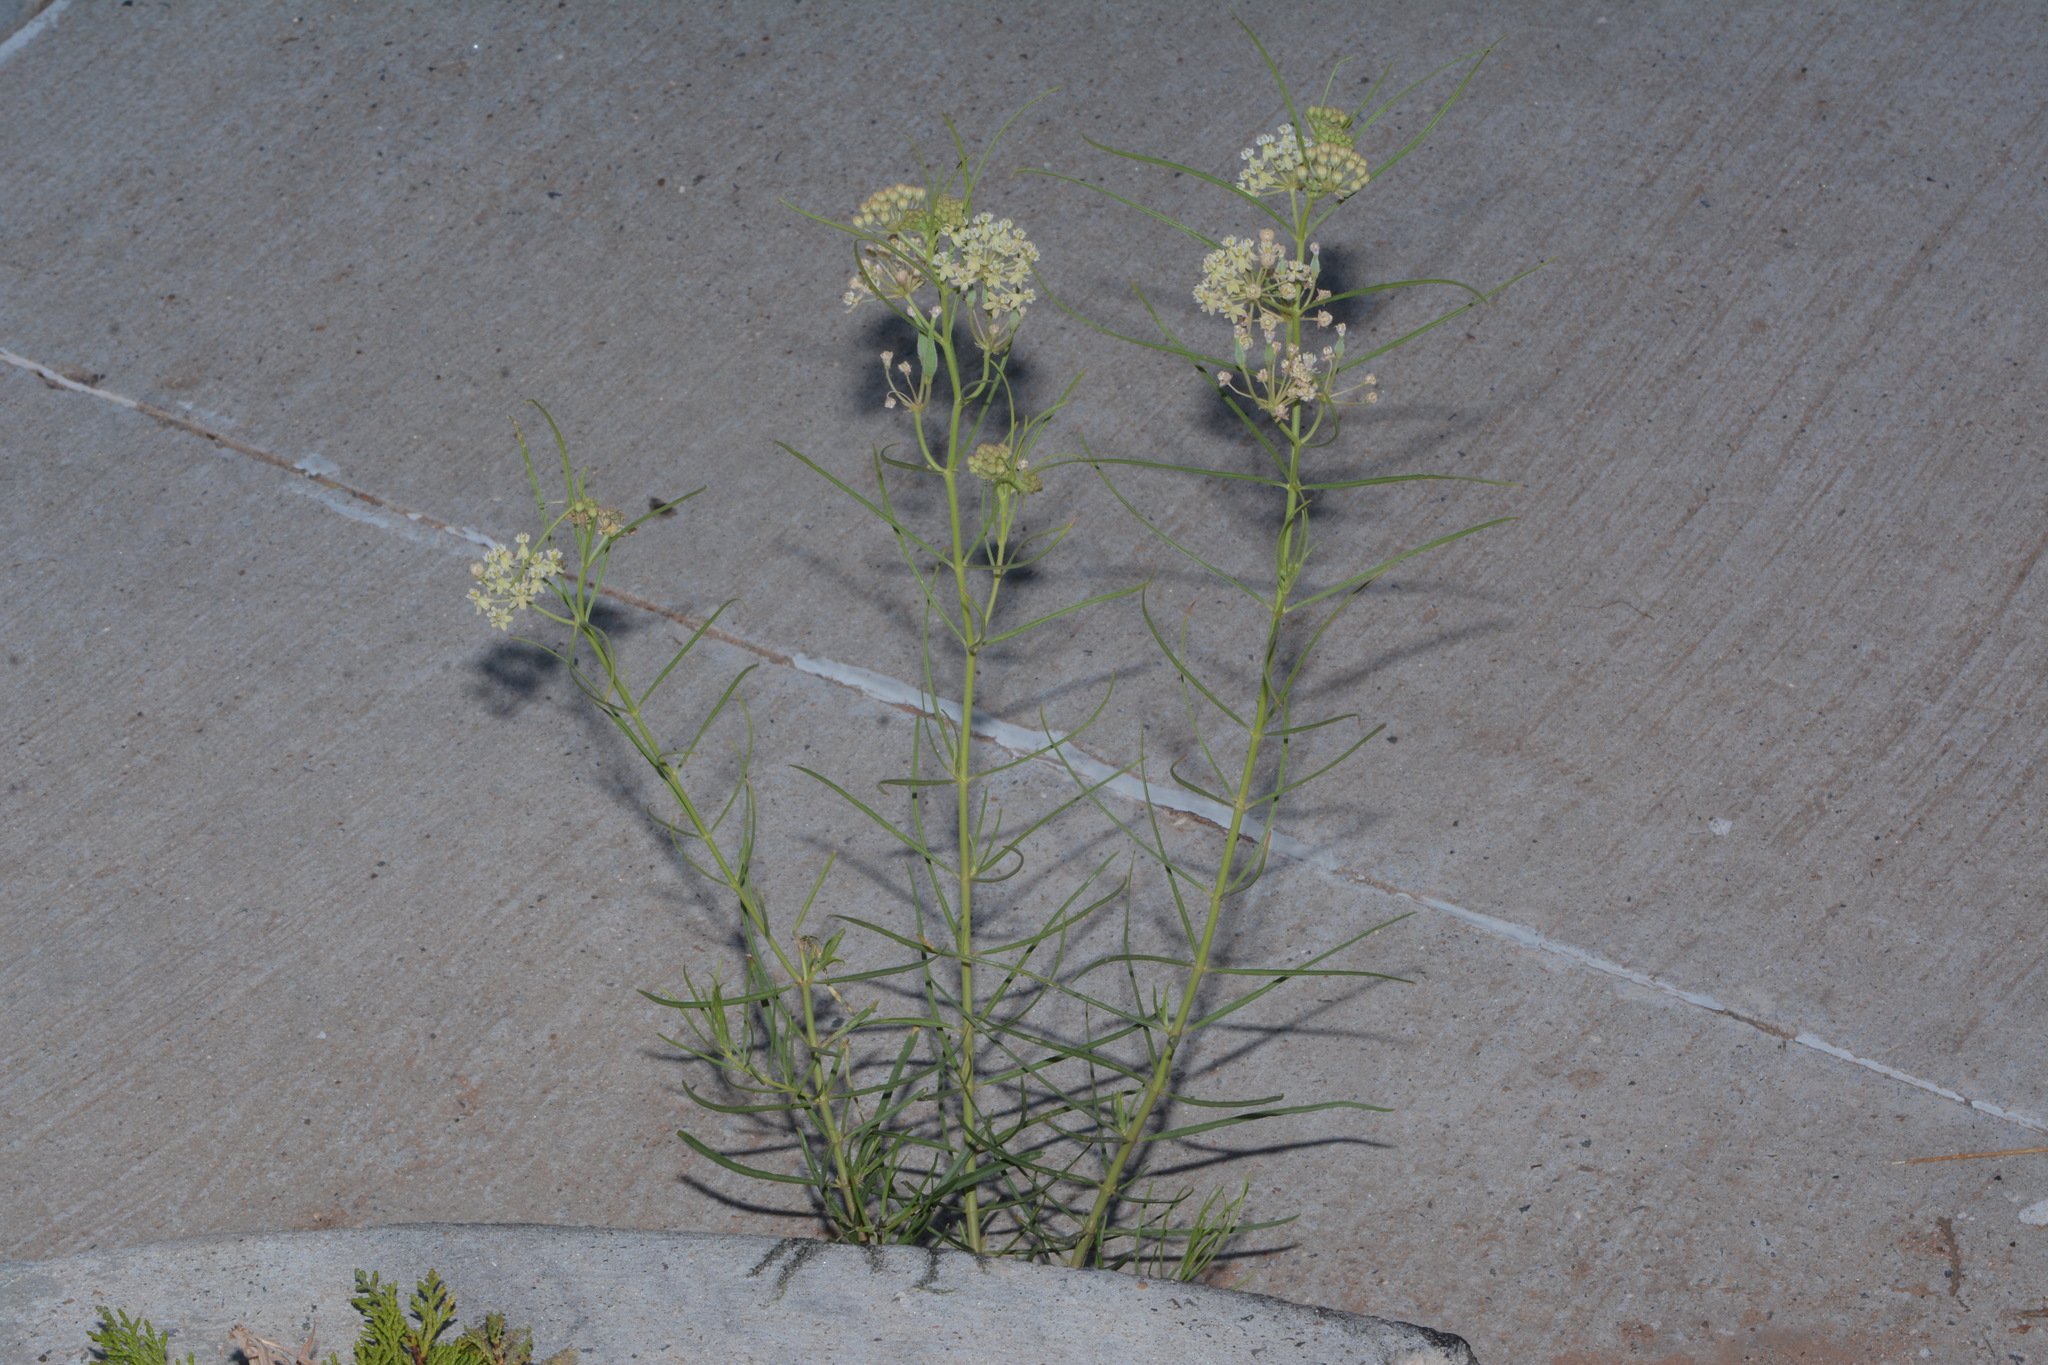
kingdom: Plantae
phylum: Tracheophyta
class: Magnoliopsida
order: Gentianales
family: Apocynaceae
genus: Asclepias
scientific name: Asclepias subverticillata
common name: Horsetail milkweed
